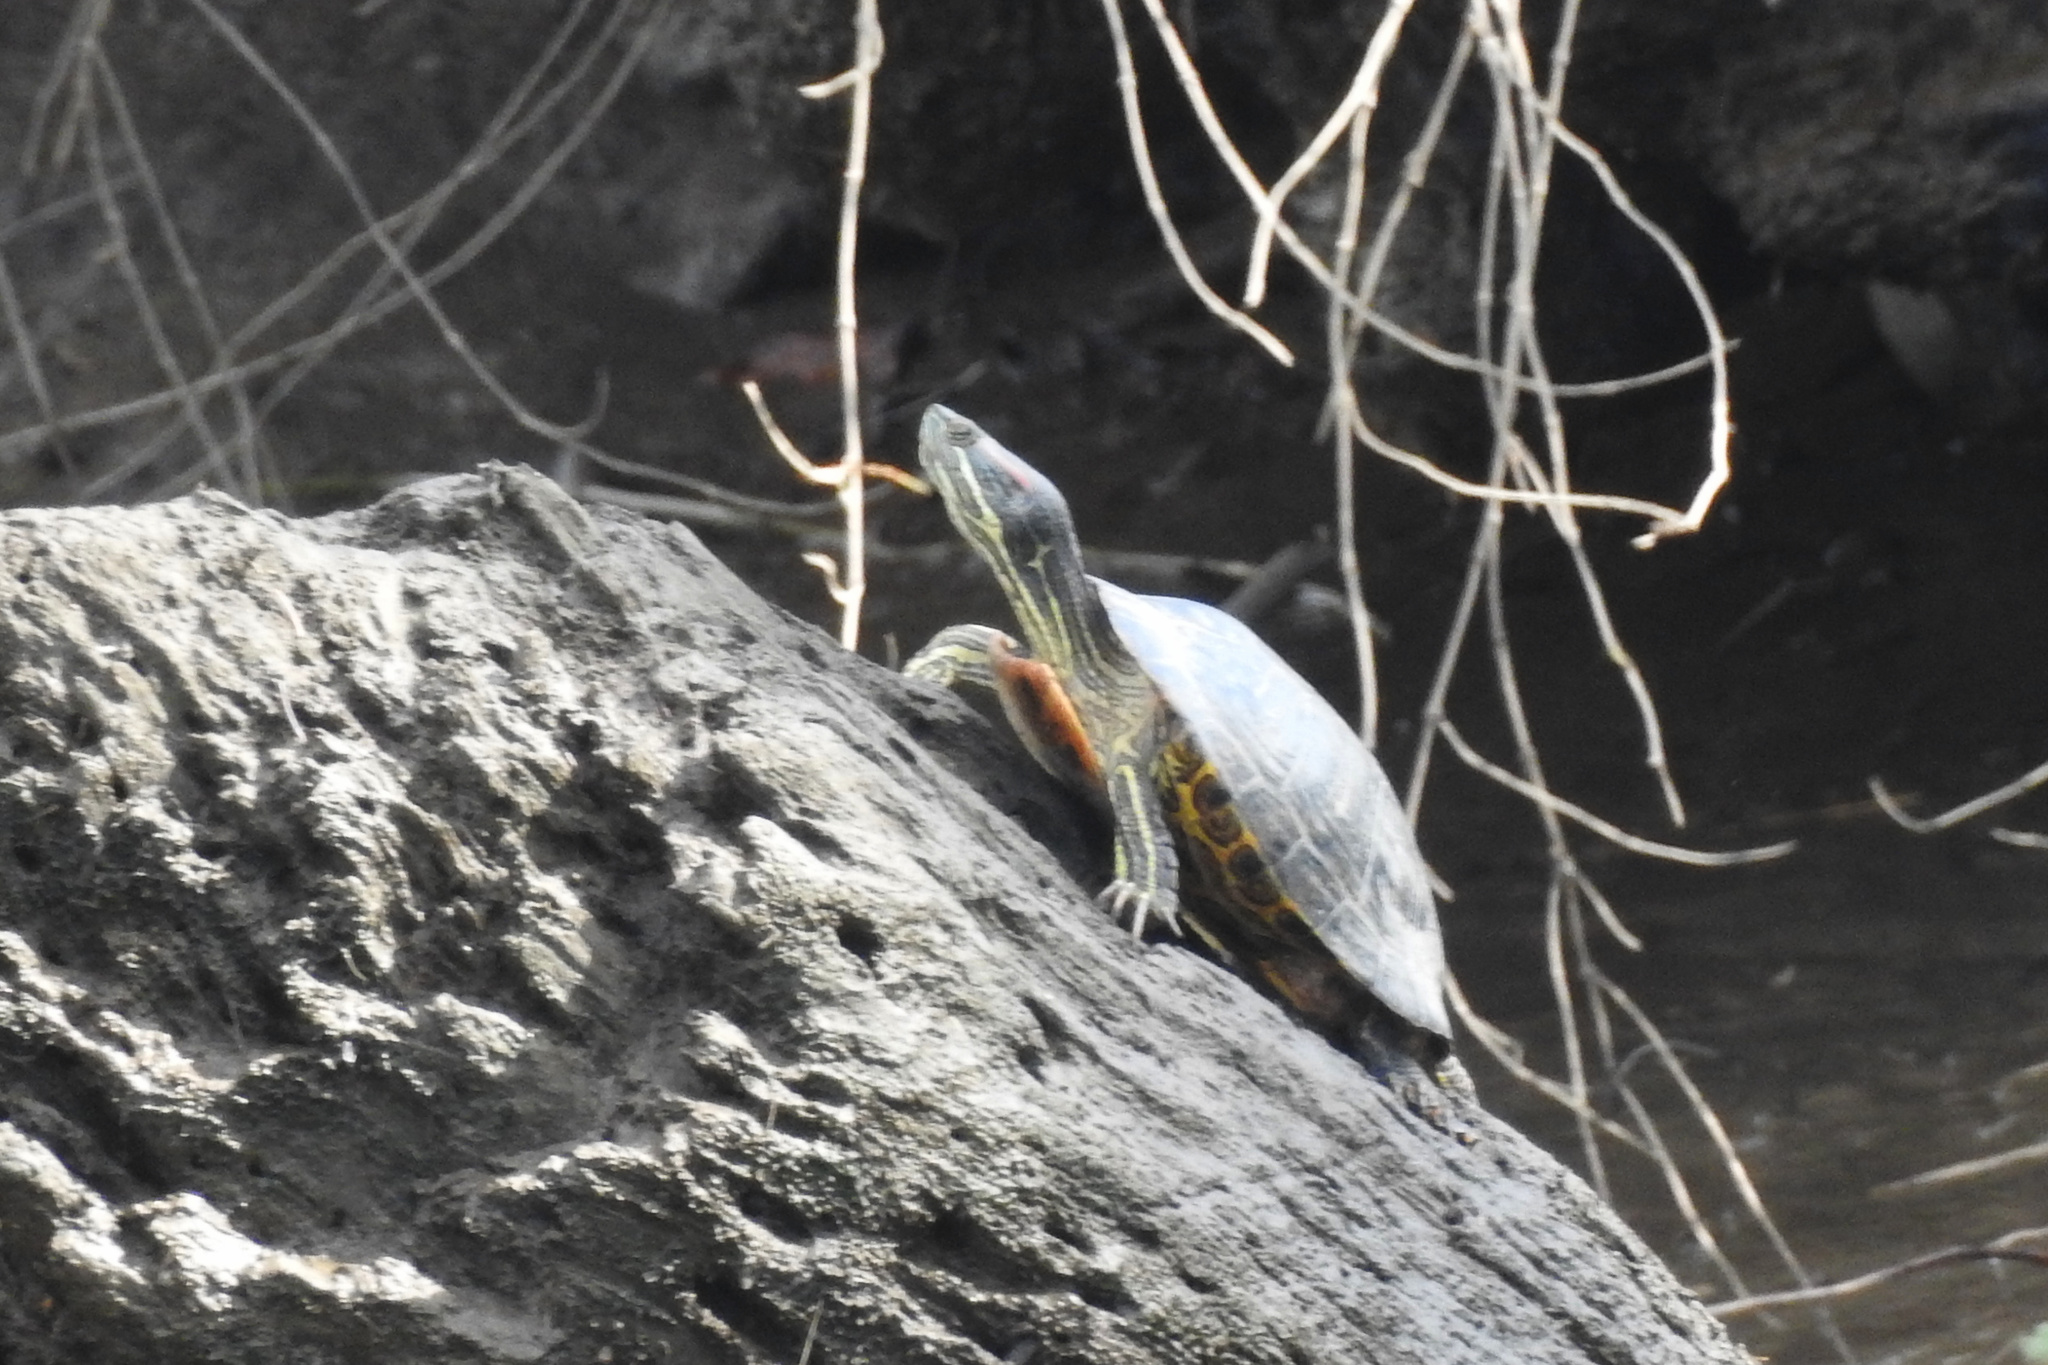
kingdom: Animalia
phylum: Chordata
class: Testudines
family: Emydidae
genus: Trachemys
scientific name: Trachemys scripta
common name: Slider
